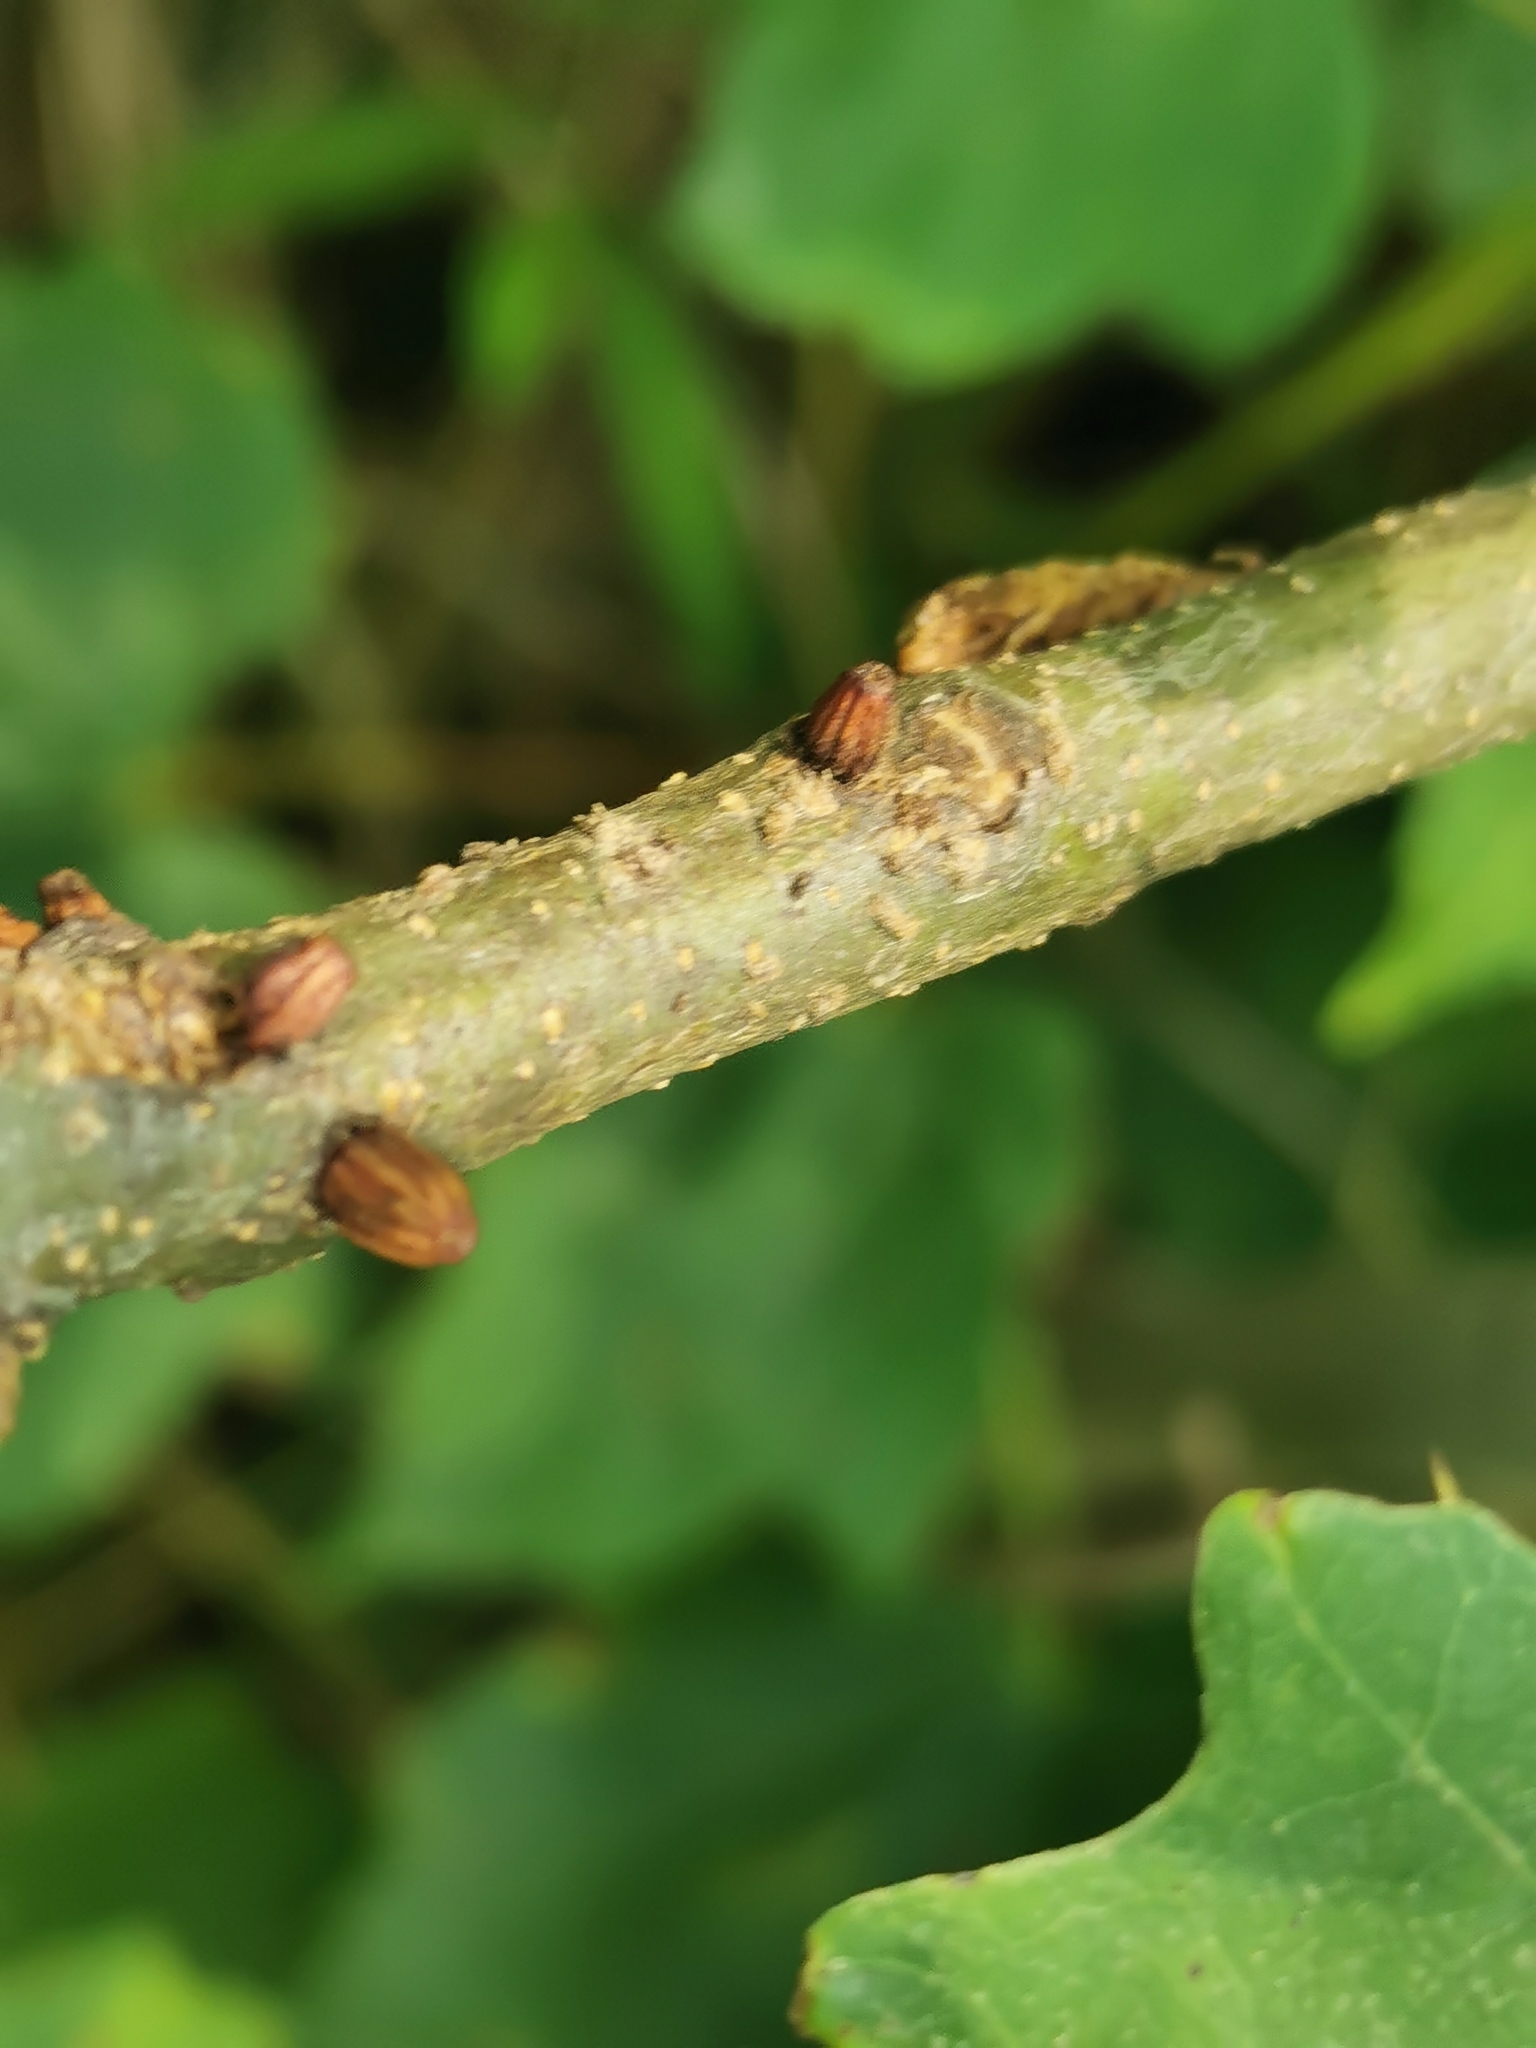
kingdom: Animalia
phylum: Arthropoda
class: Insecta
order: Hymenoptera
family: Cynipidae
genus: Callirhytis
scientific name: Callirhytis
